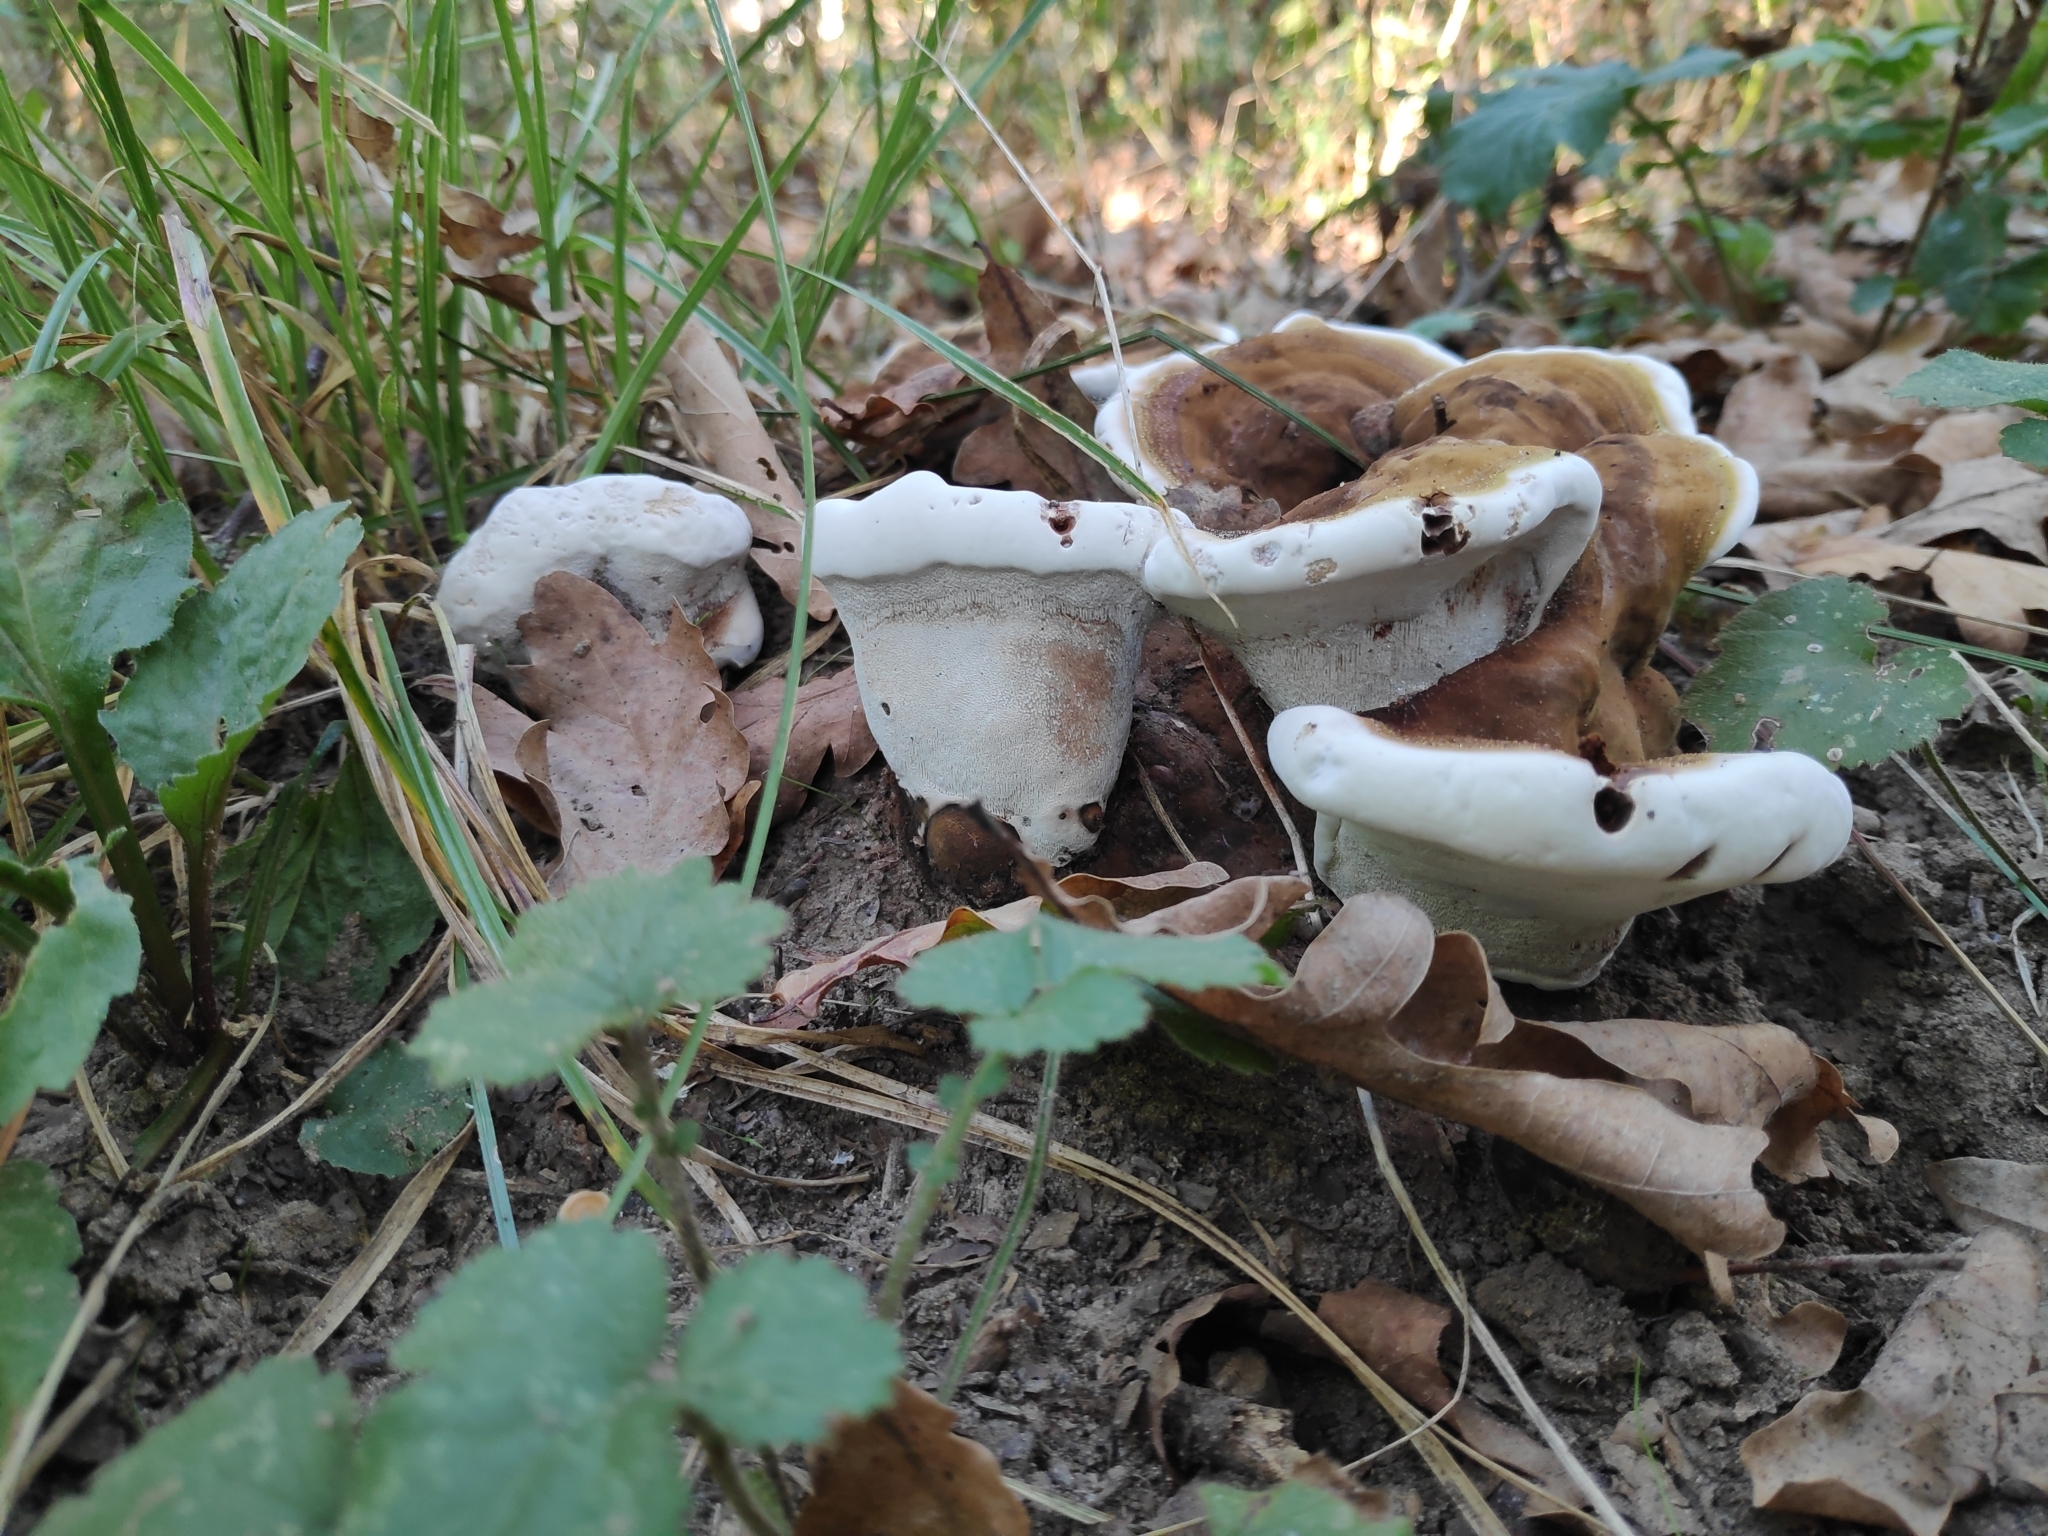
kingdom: Fungi
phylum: Basidiomycota
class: Agaricomycetes
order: Polyporales
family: Polyporaceae
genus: Ganoderma
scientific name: Ganoderma applanatum
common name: Artist's bracket
